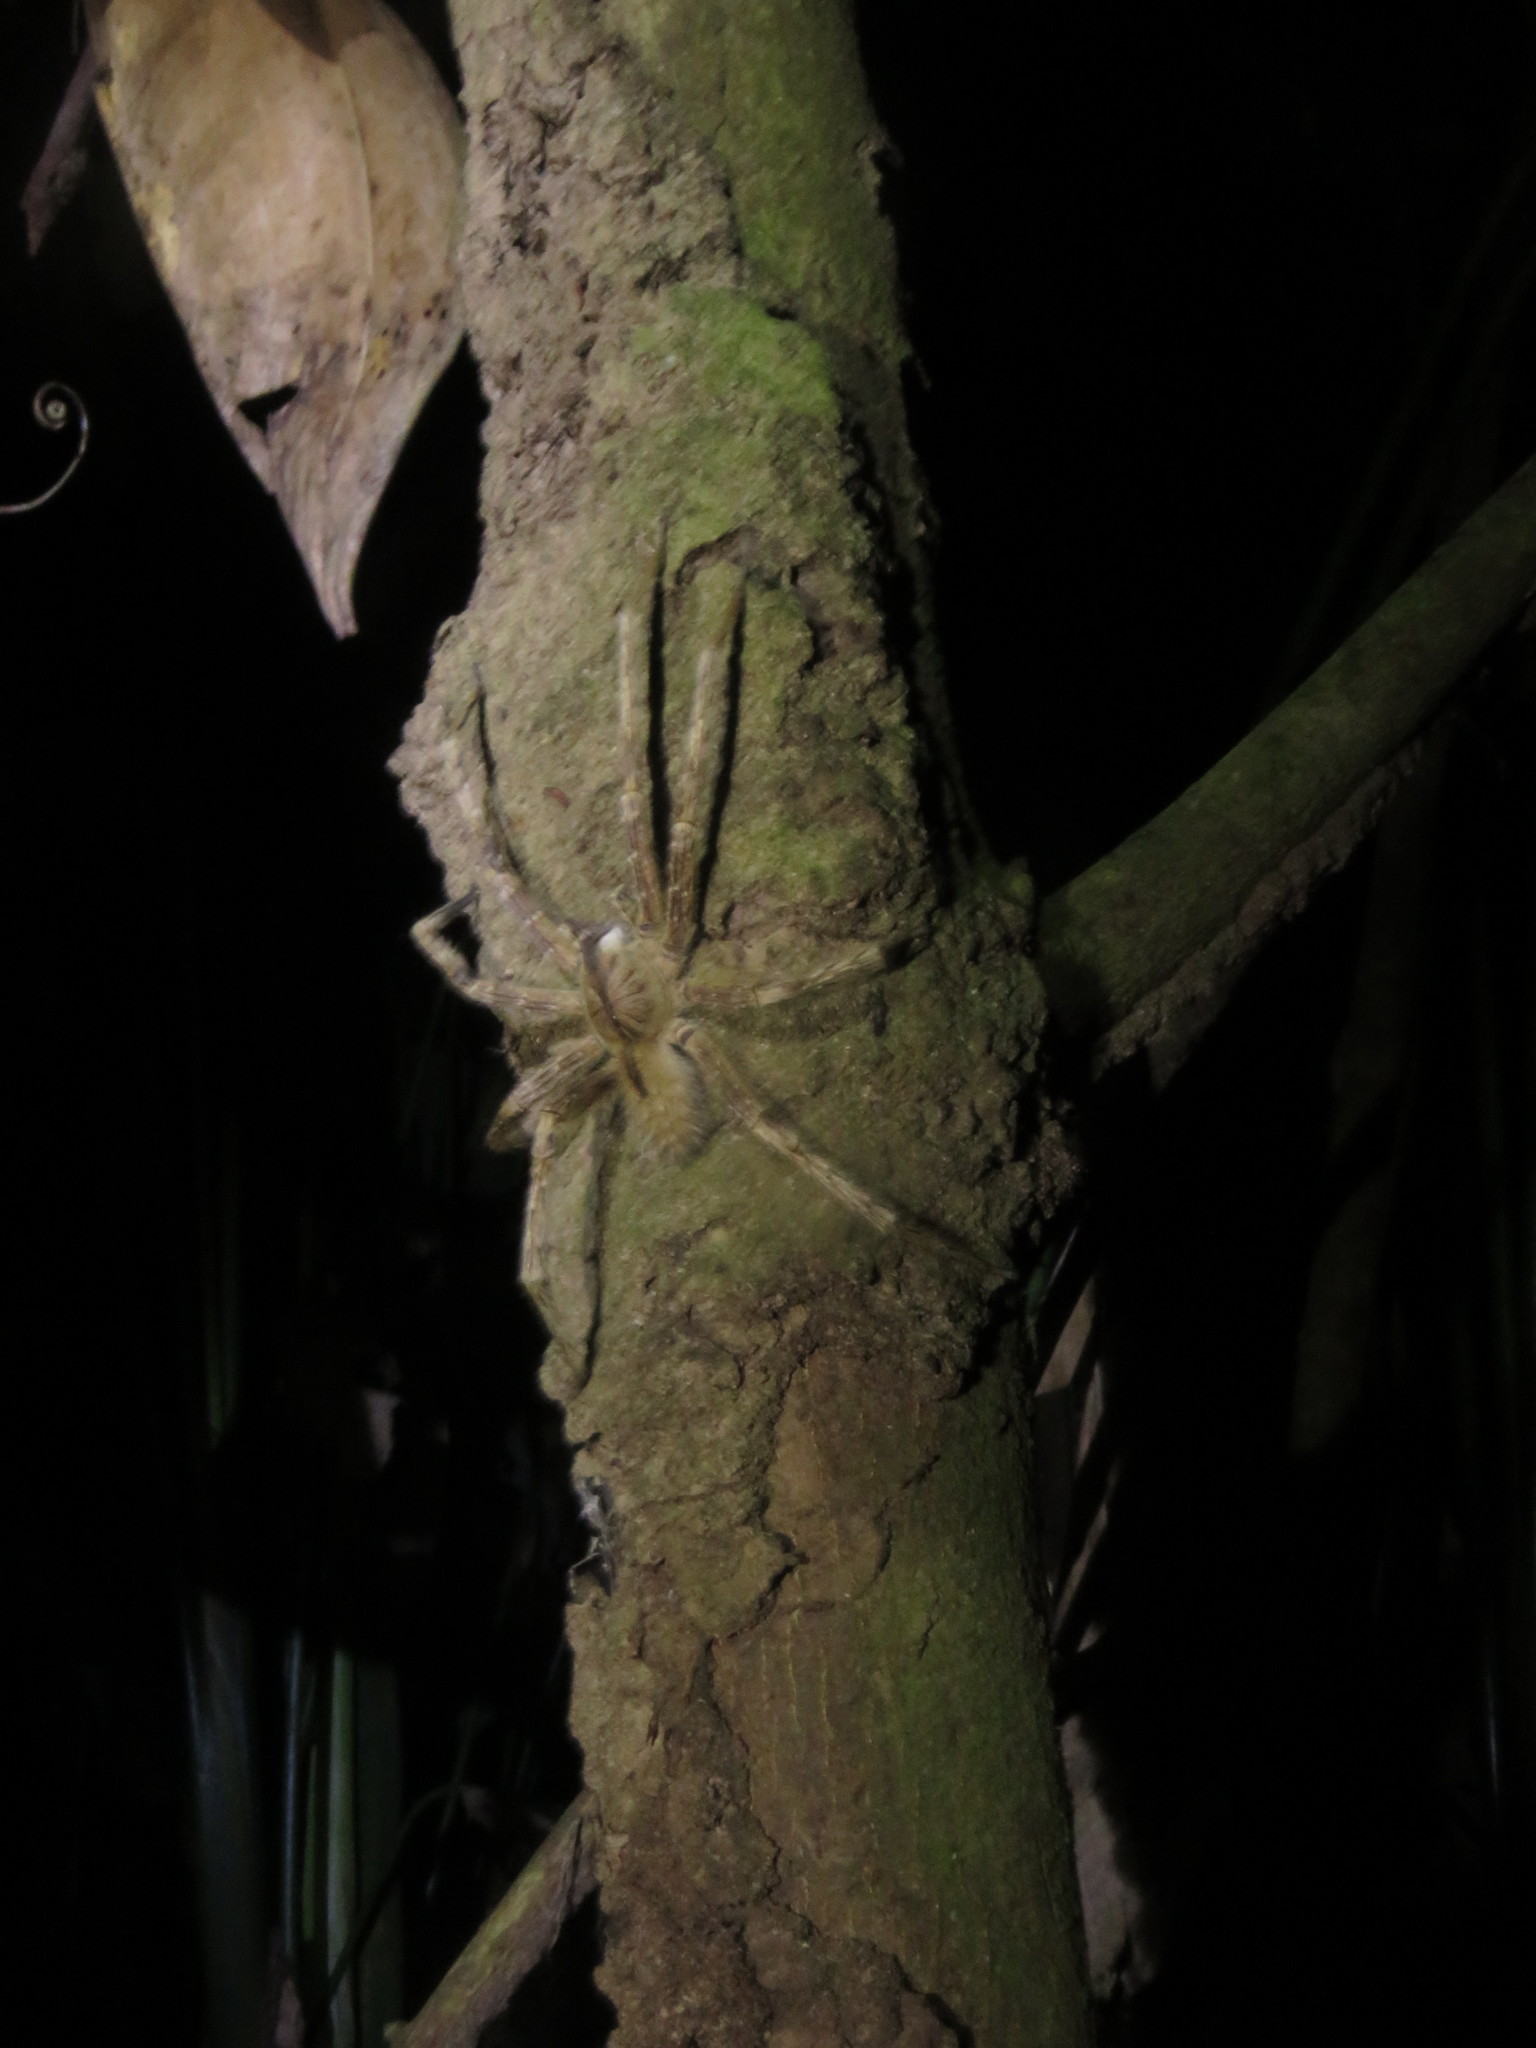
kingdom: Animalia
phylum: Arthropoda
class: Arachnida
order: Araneae
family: Ctenidae
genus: Phoneutria
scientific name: Phoneutria boliviensis
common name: Wandering spiders
